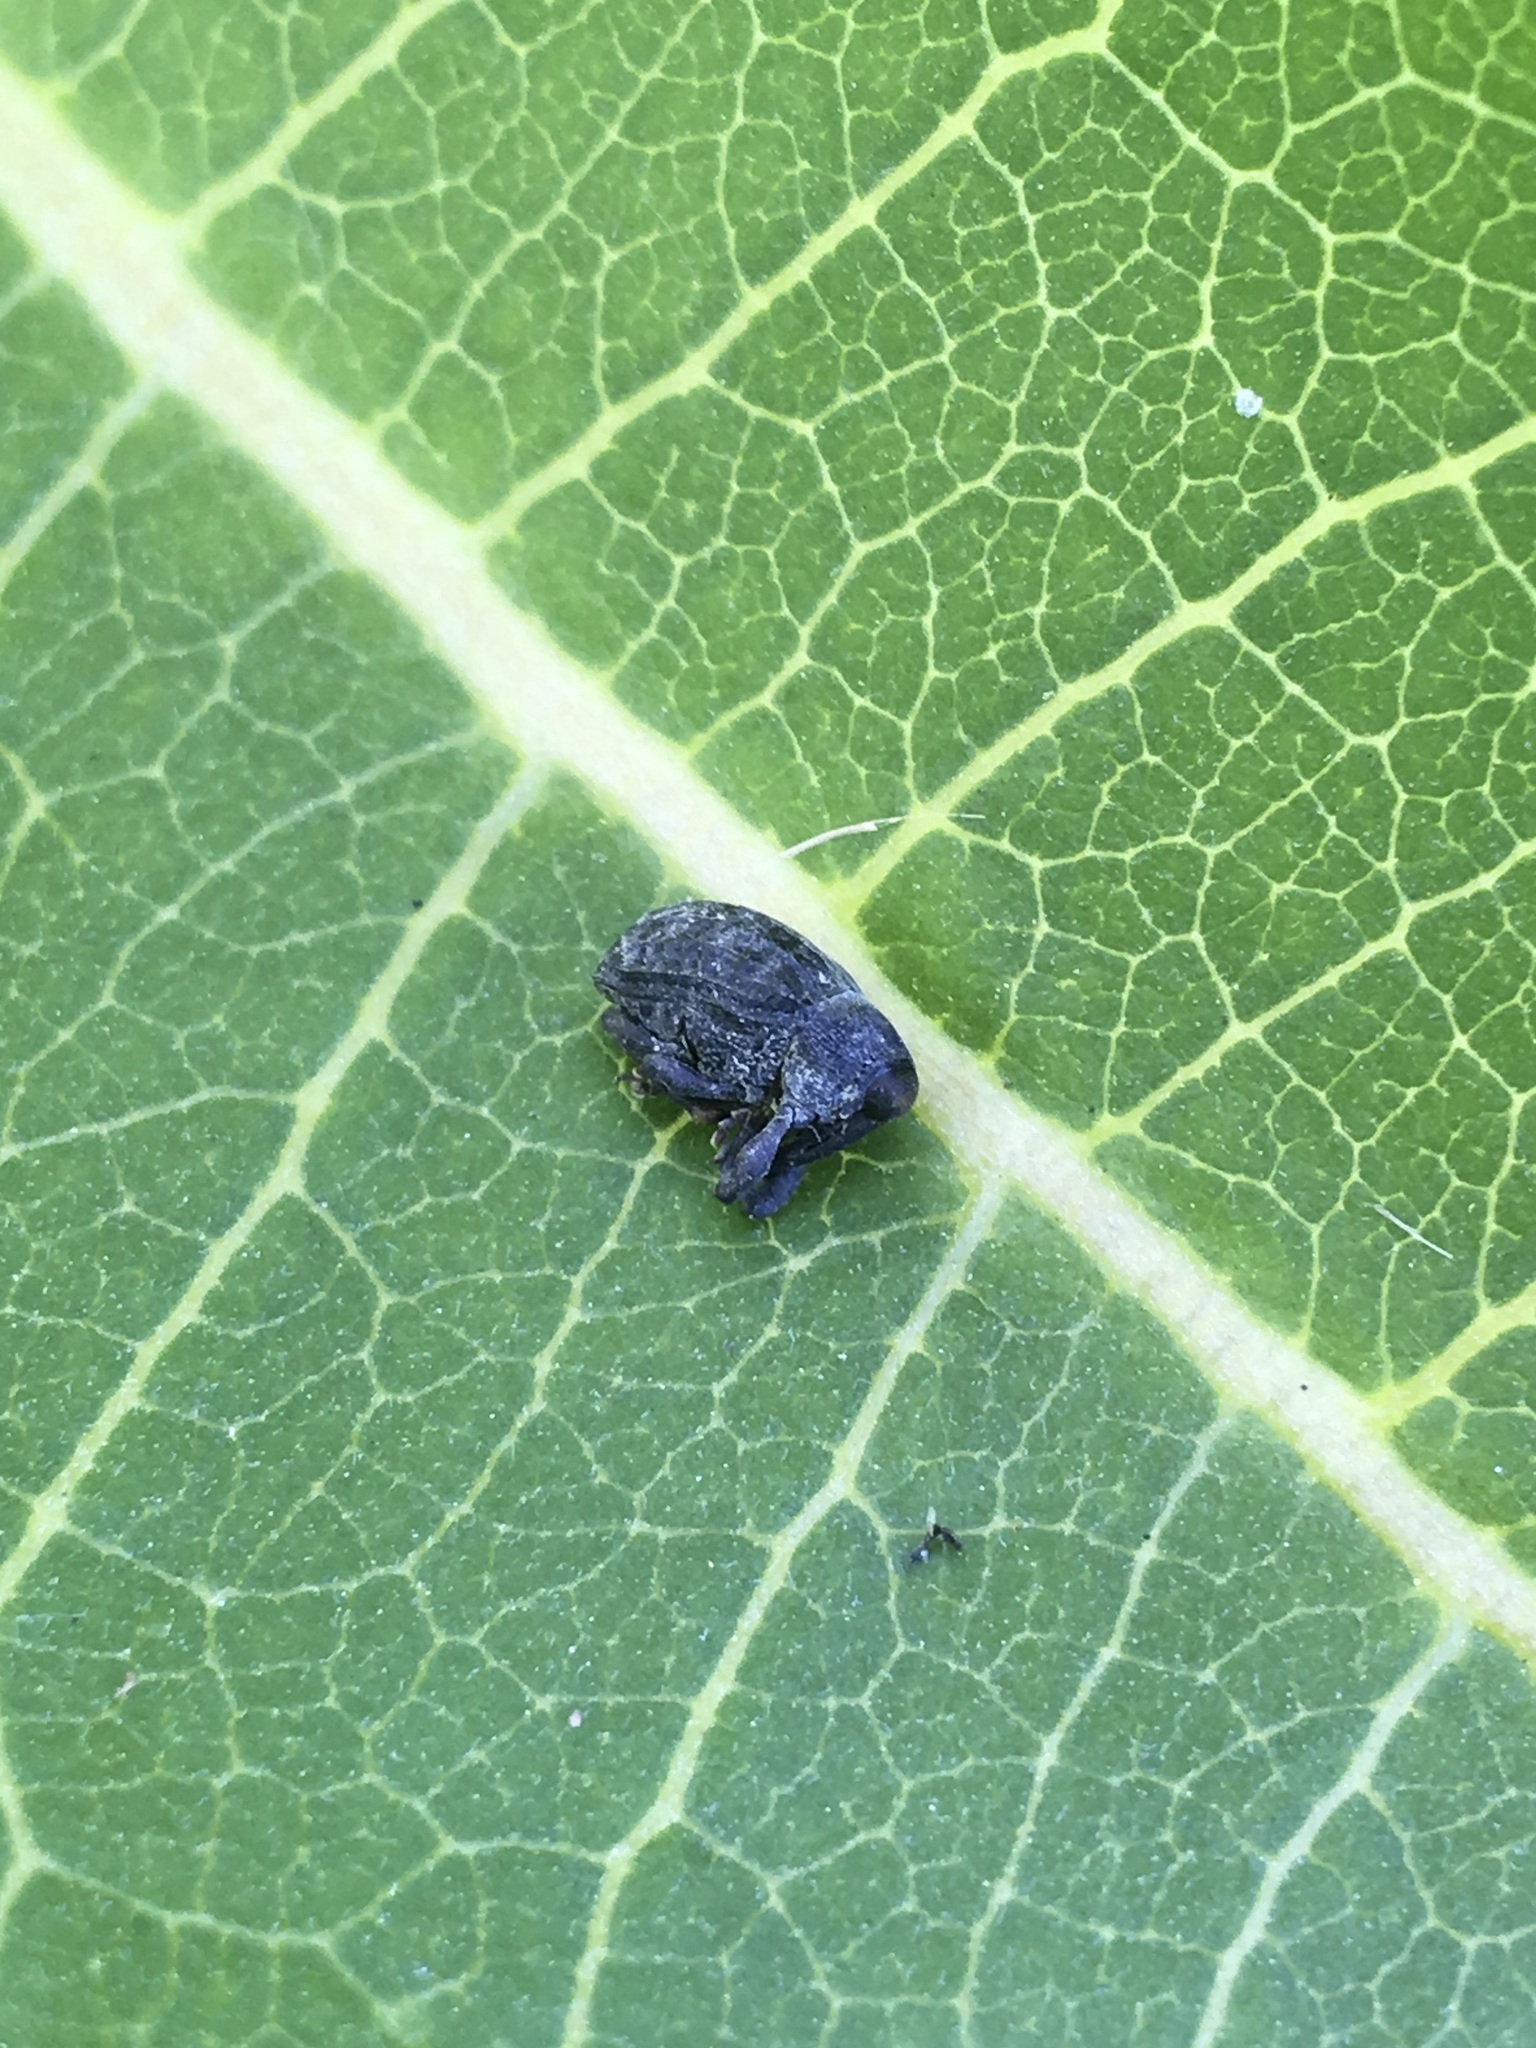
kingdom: Animalia
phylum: Arthropoda
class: Insecta
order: Coleoptera
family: Curculionidae
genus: Rhyssomatus
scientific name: Rhyssomatus lineaticollis
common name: Milkweed stem weevil
